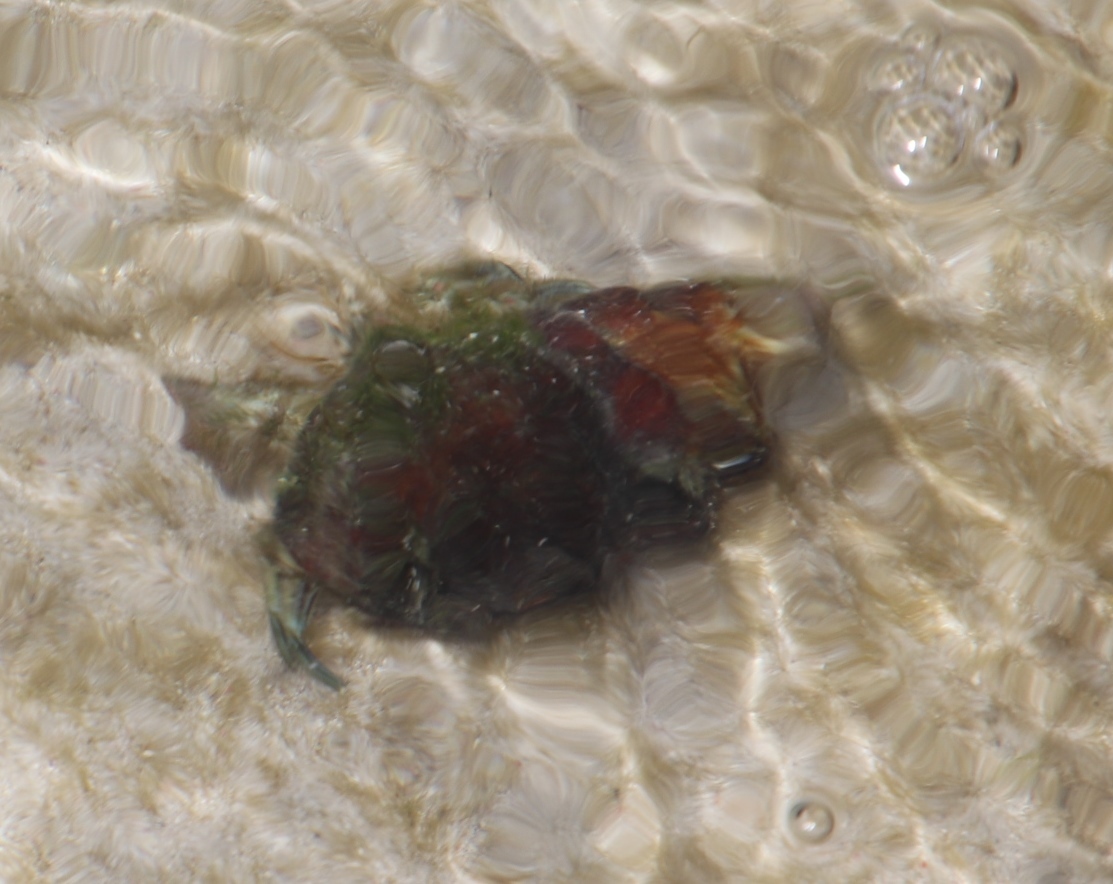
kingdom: Animalia
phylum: Arthropoda
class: Malacostraca
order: Decapoda
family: Diogenidae
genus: Diogenes
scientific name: Diogenes brevirostris
